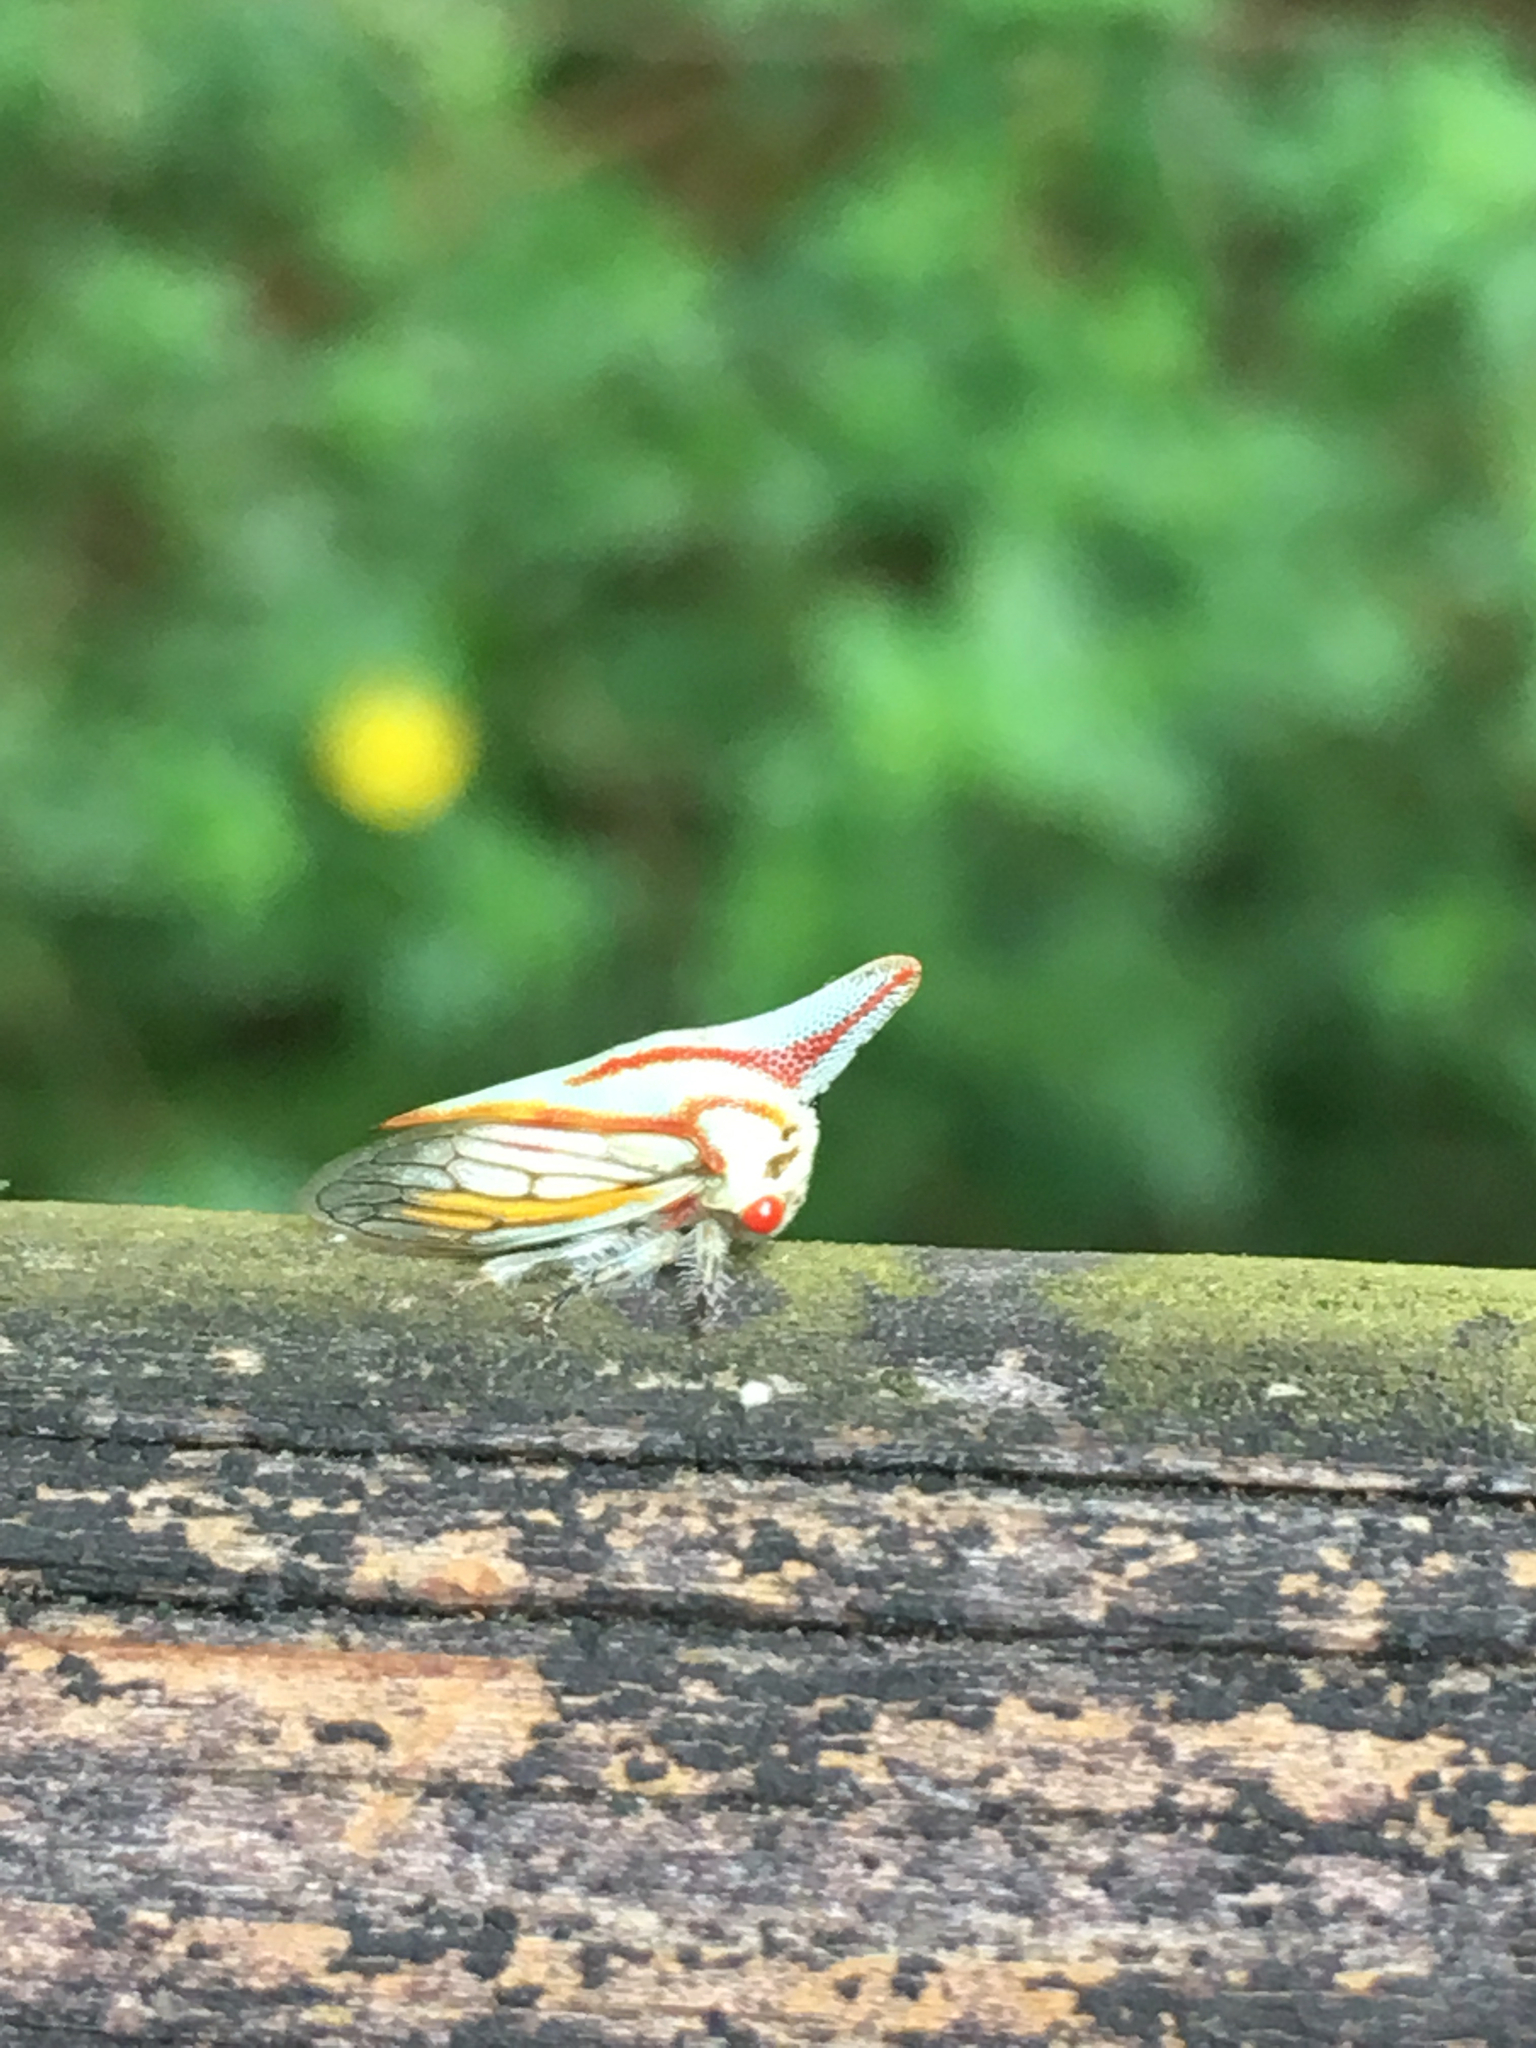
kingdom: Animalia
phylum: Arthropoda
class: Insecta
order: Hemiptera
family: Membracidae
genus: Platycotis
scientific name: Platycotis vittatus
